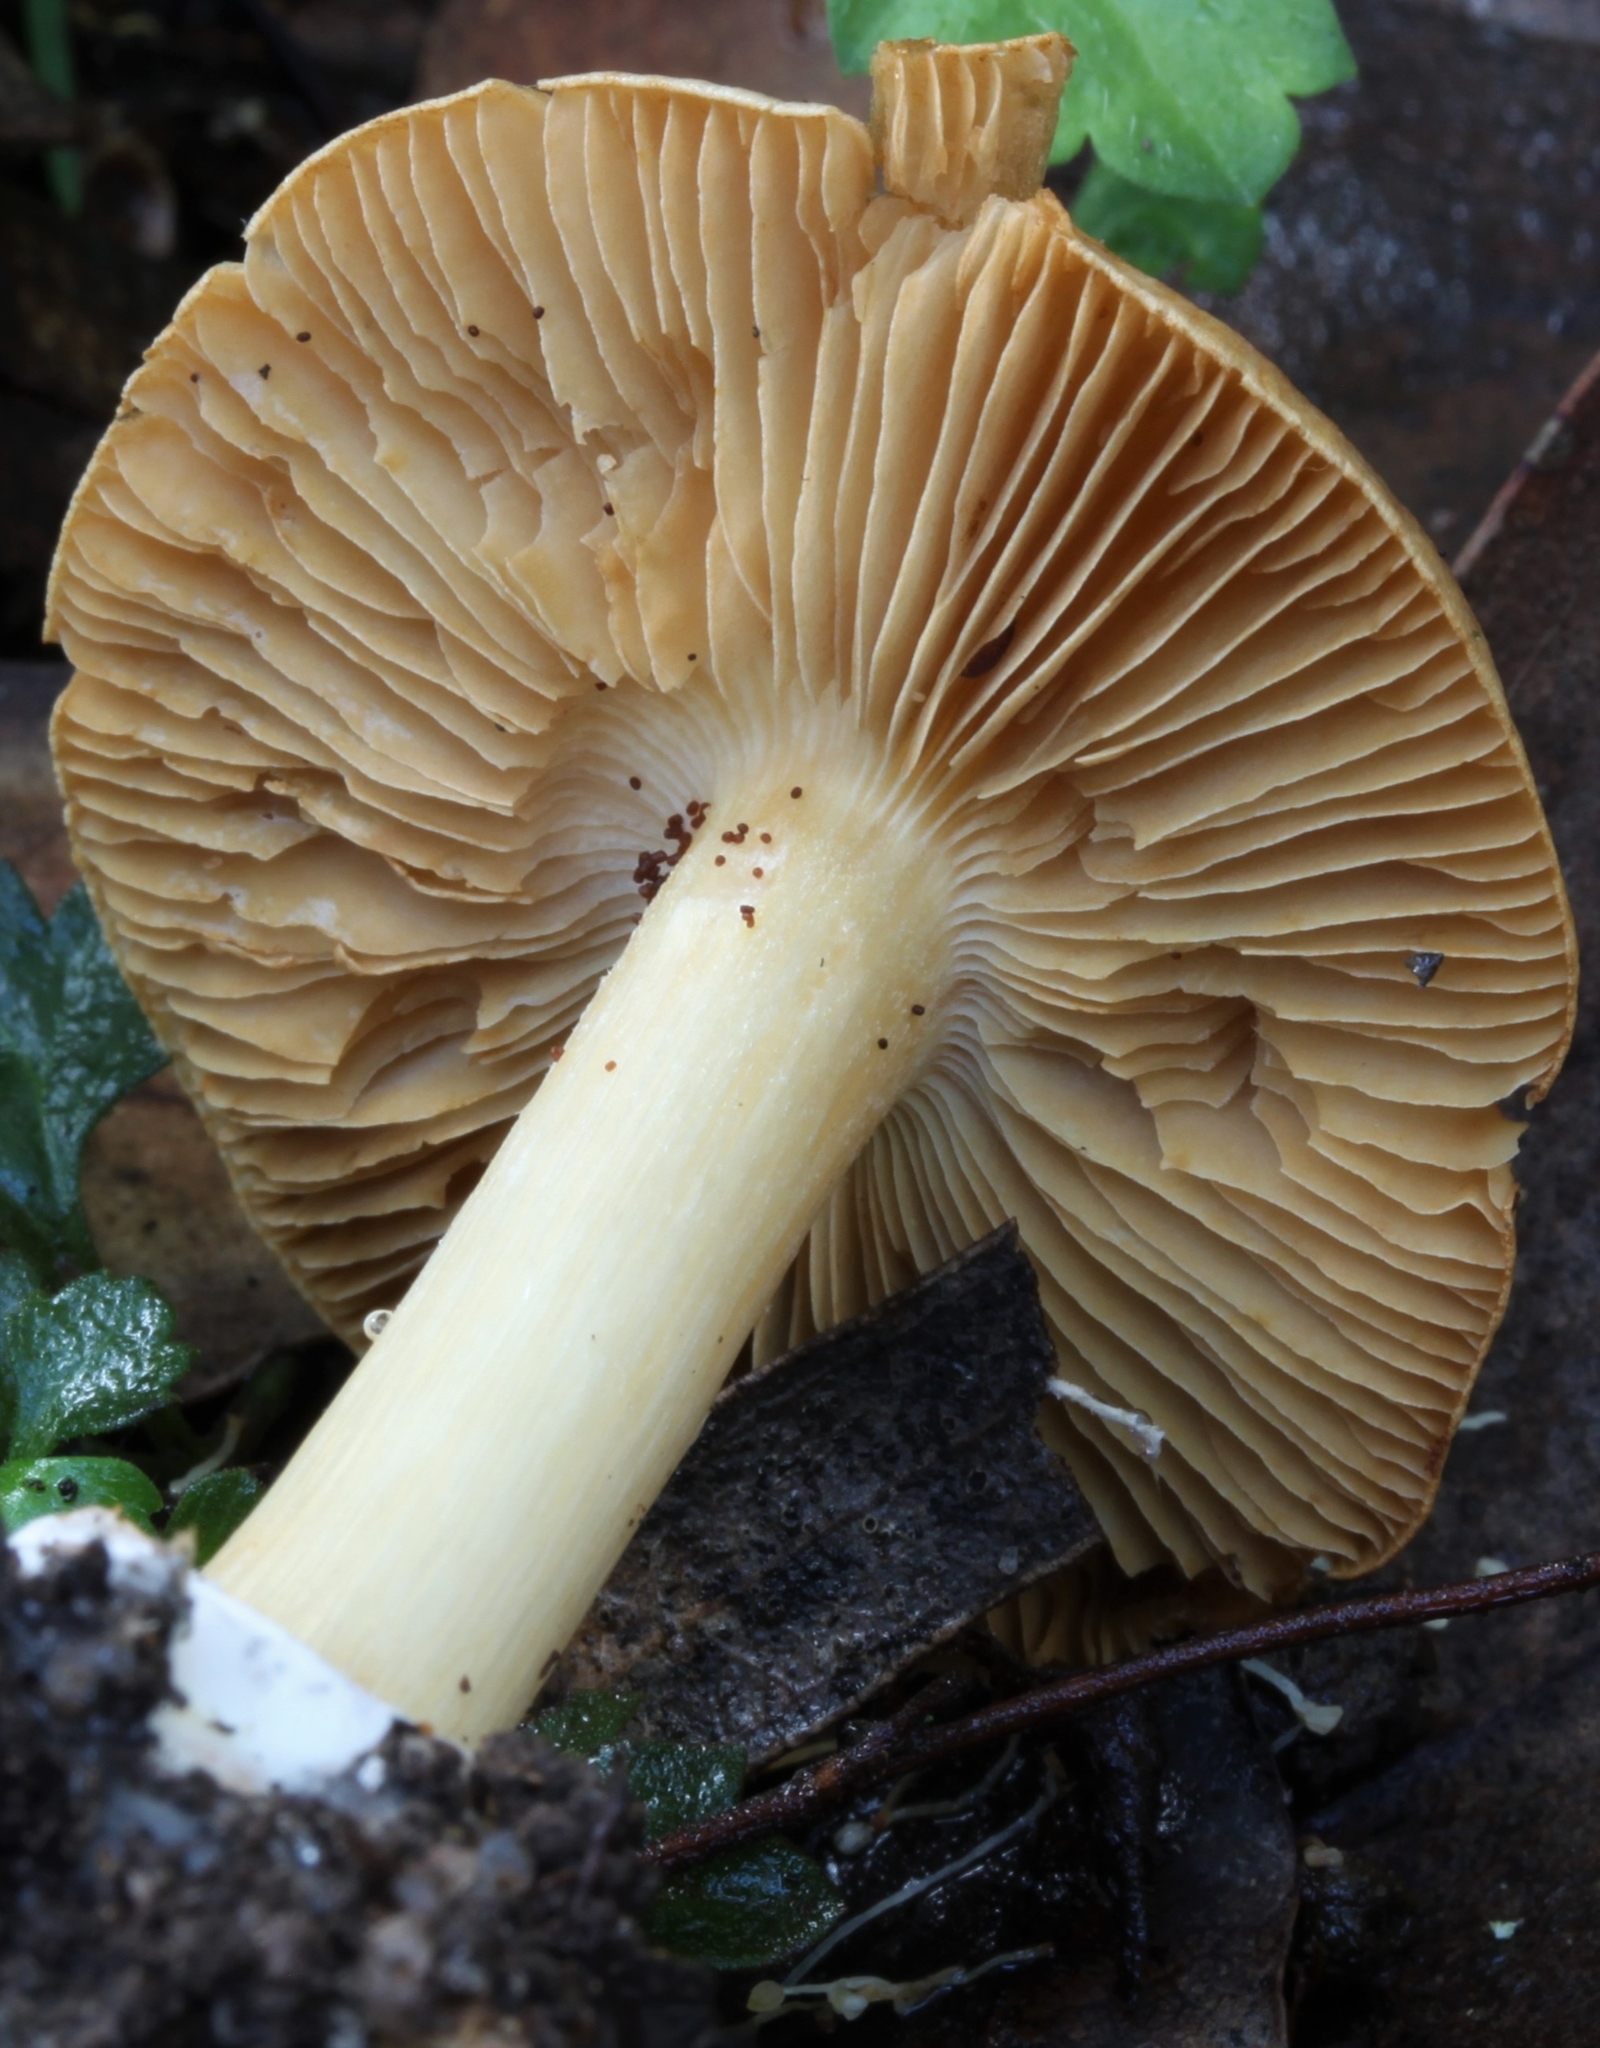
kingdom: Fungi
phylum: Basidiomycota
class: Agaricomycetes
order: Agaricales
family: Cortinariaceae
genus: Cortinarius
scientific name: Cortinarius phalarus
